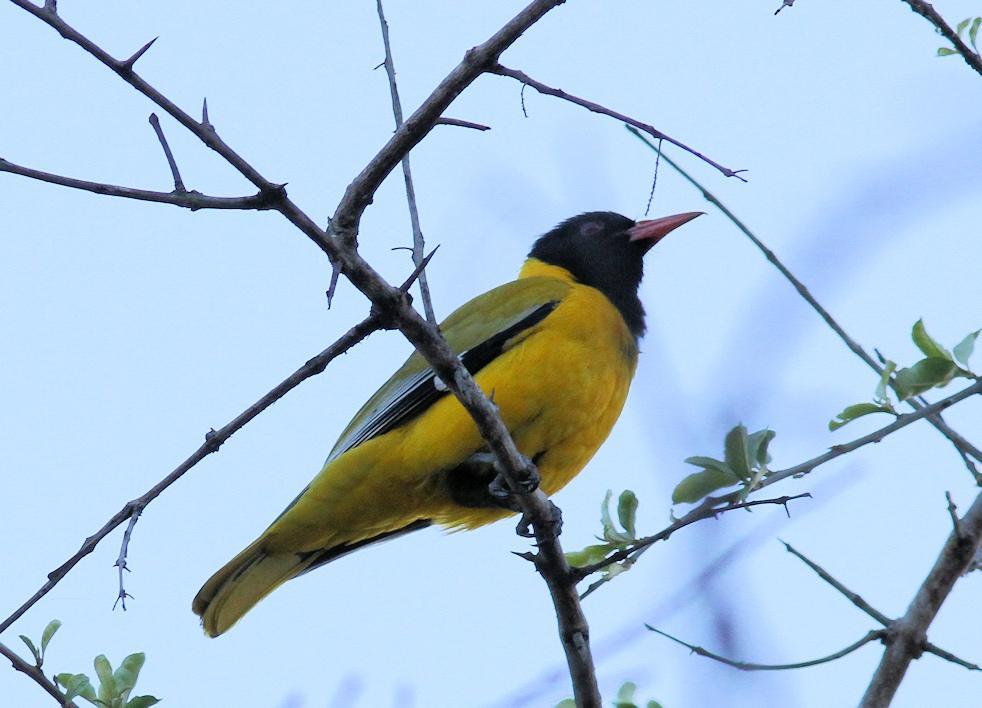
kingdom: Animalia
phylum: Chordata
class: Aves
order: Passeriformes
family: Oriolidae
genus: Oriolus
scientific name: Oriolus larvatus
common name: Black-headed oriole
